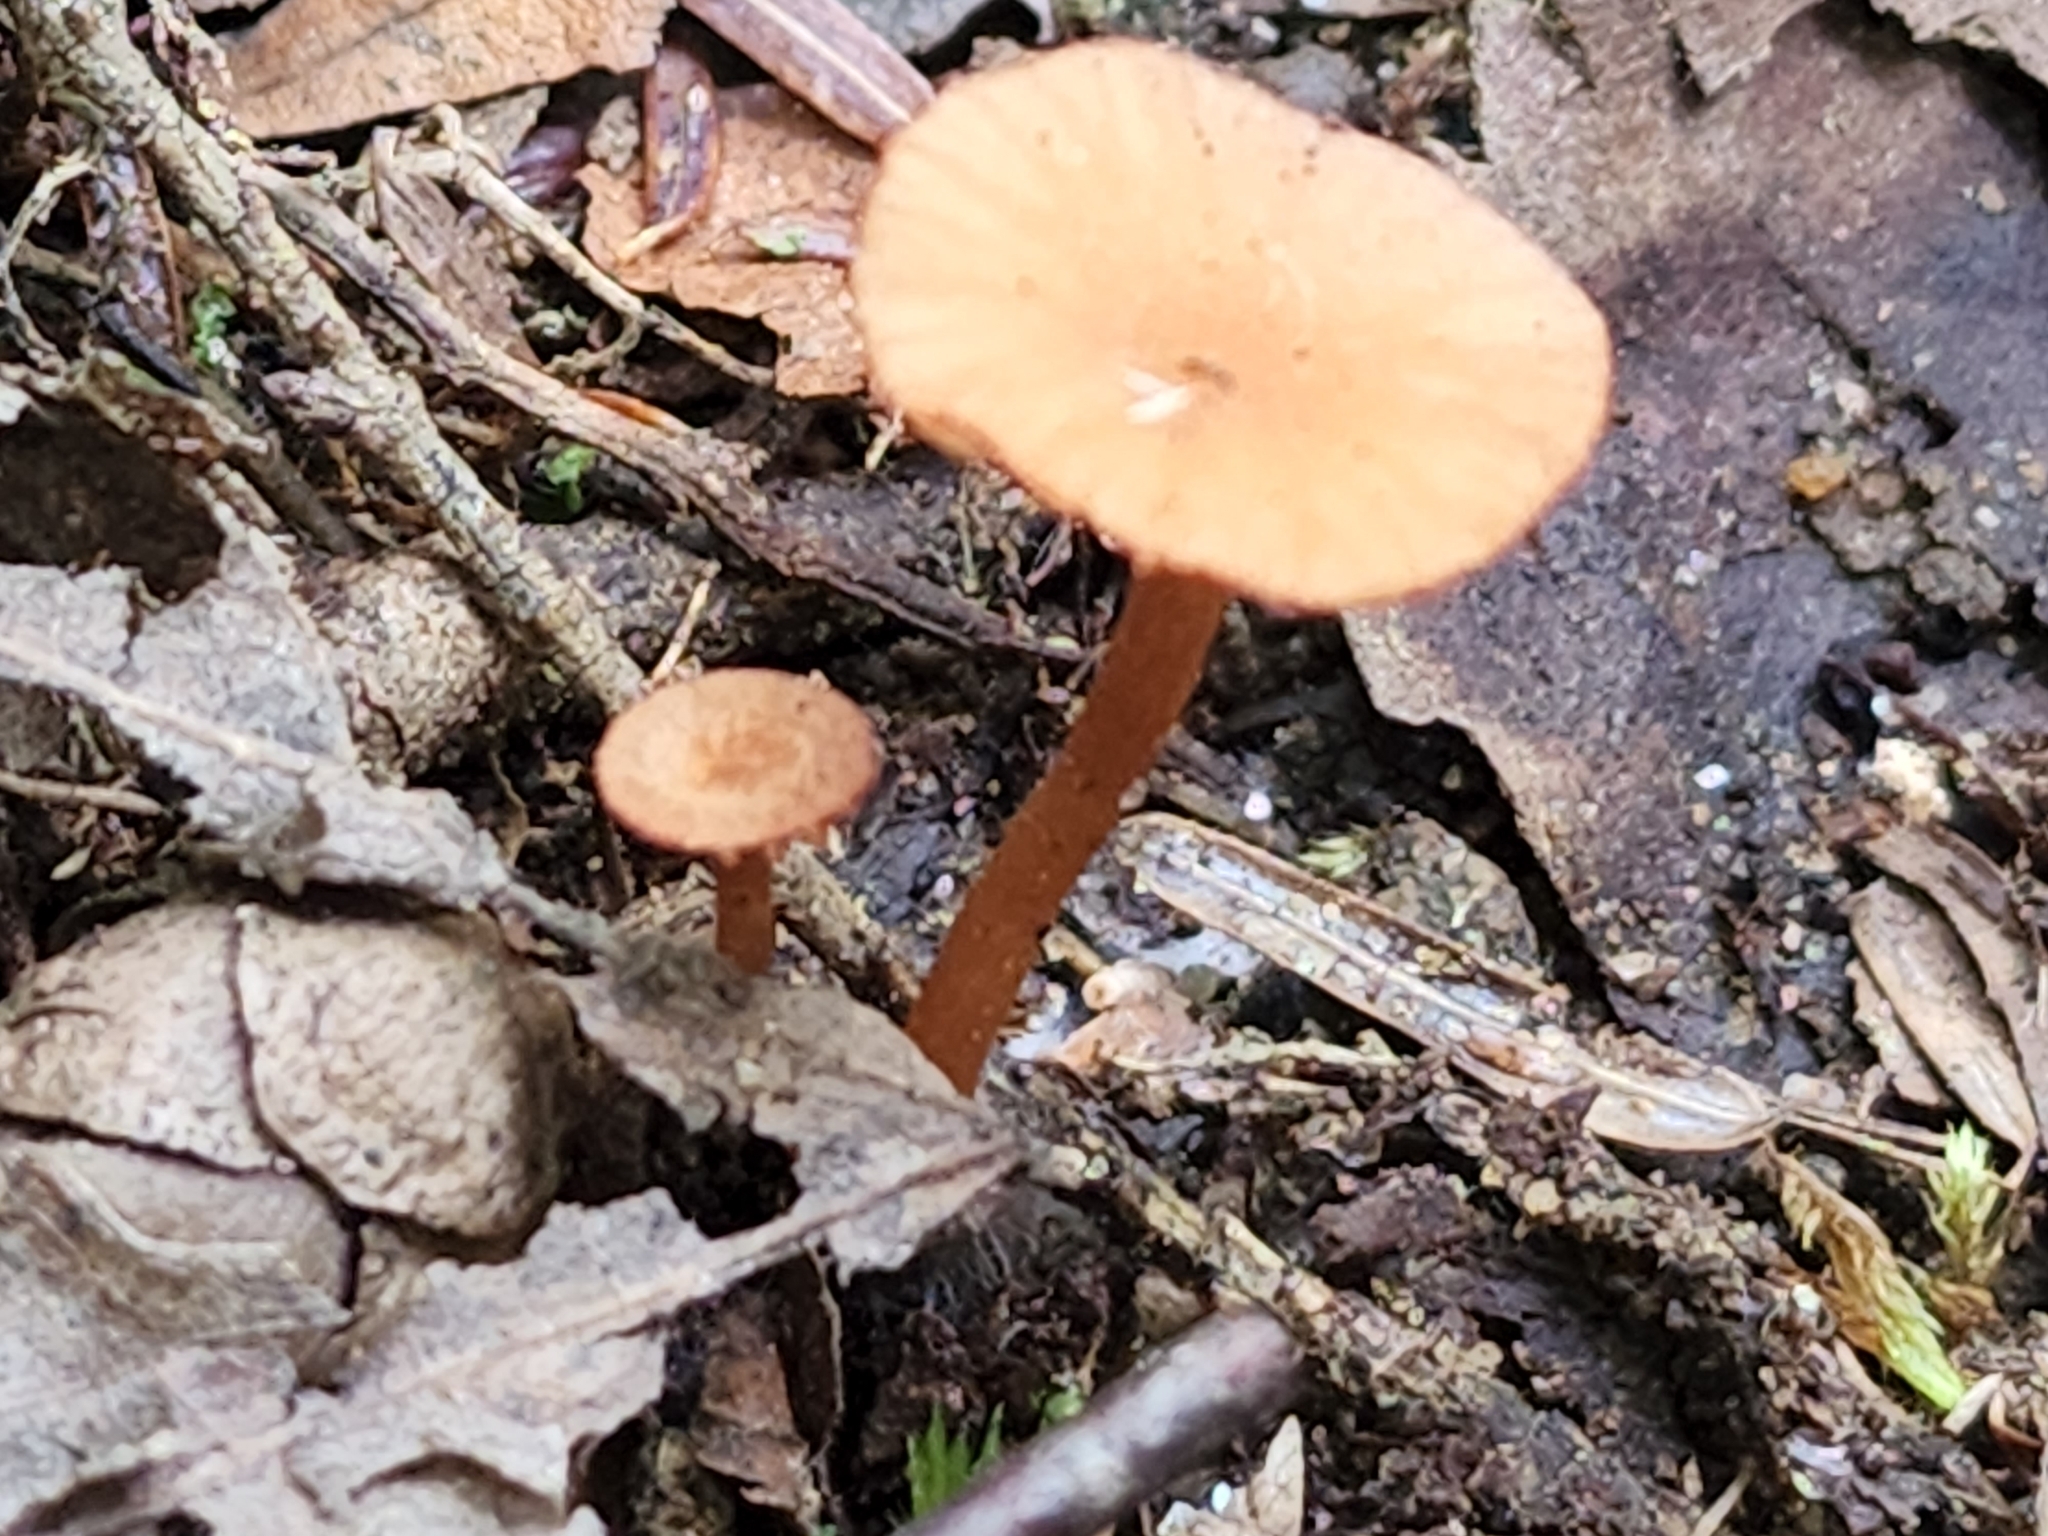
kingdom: Fungi
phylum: Basidiomycota
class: Agaricomycetes
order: Agaricales
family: Hydnangiaceae
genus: Laccaria
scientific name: Laccaria laccata
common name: Deceiver
